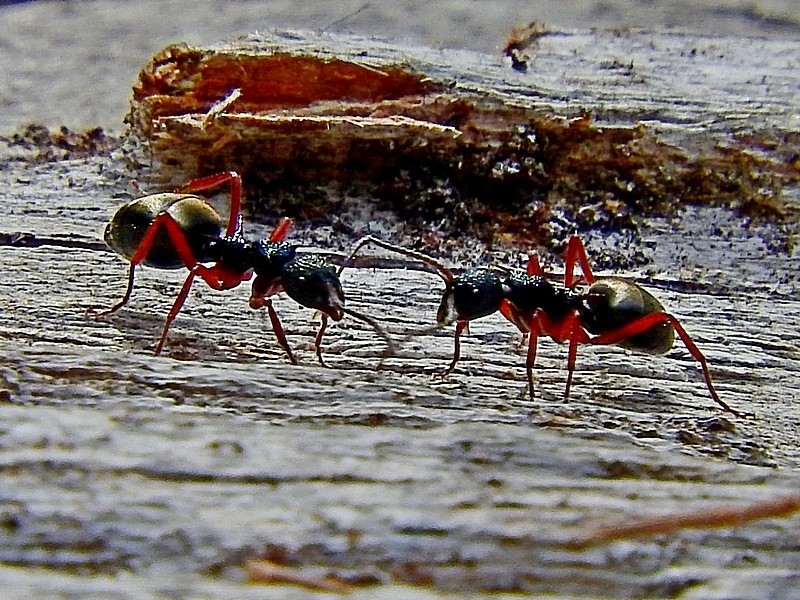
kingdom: Animalia
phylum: Arthropoda
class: Insecta
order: Hymenoptera
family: Formicidae
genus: Dolichoderus
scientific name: Dolichoderus doriae
